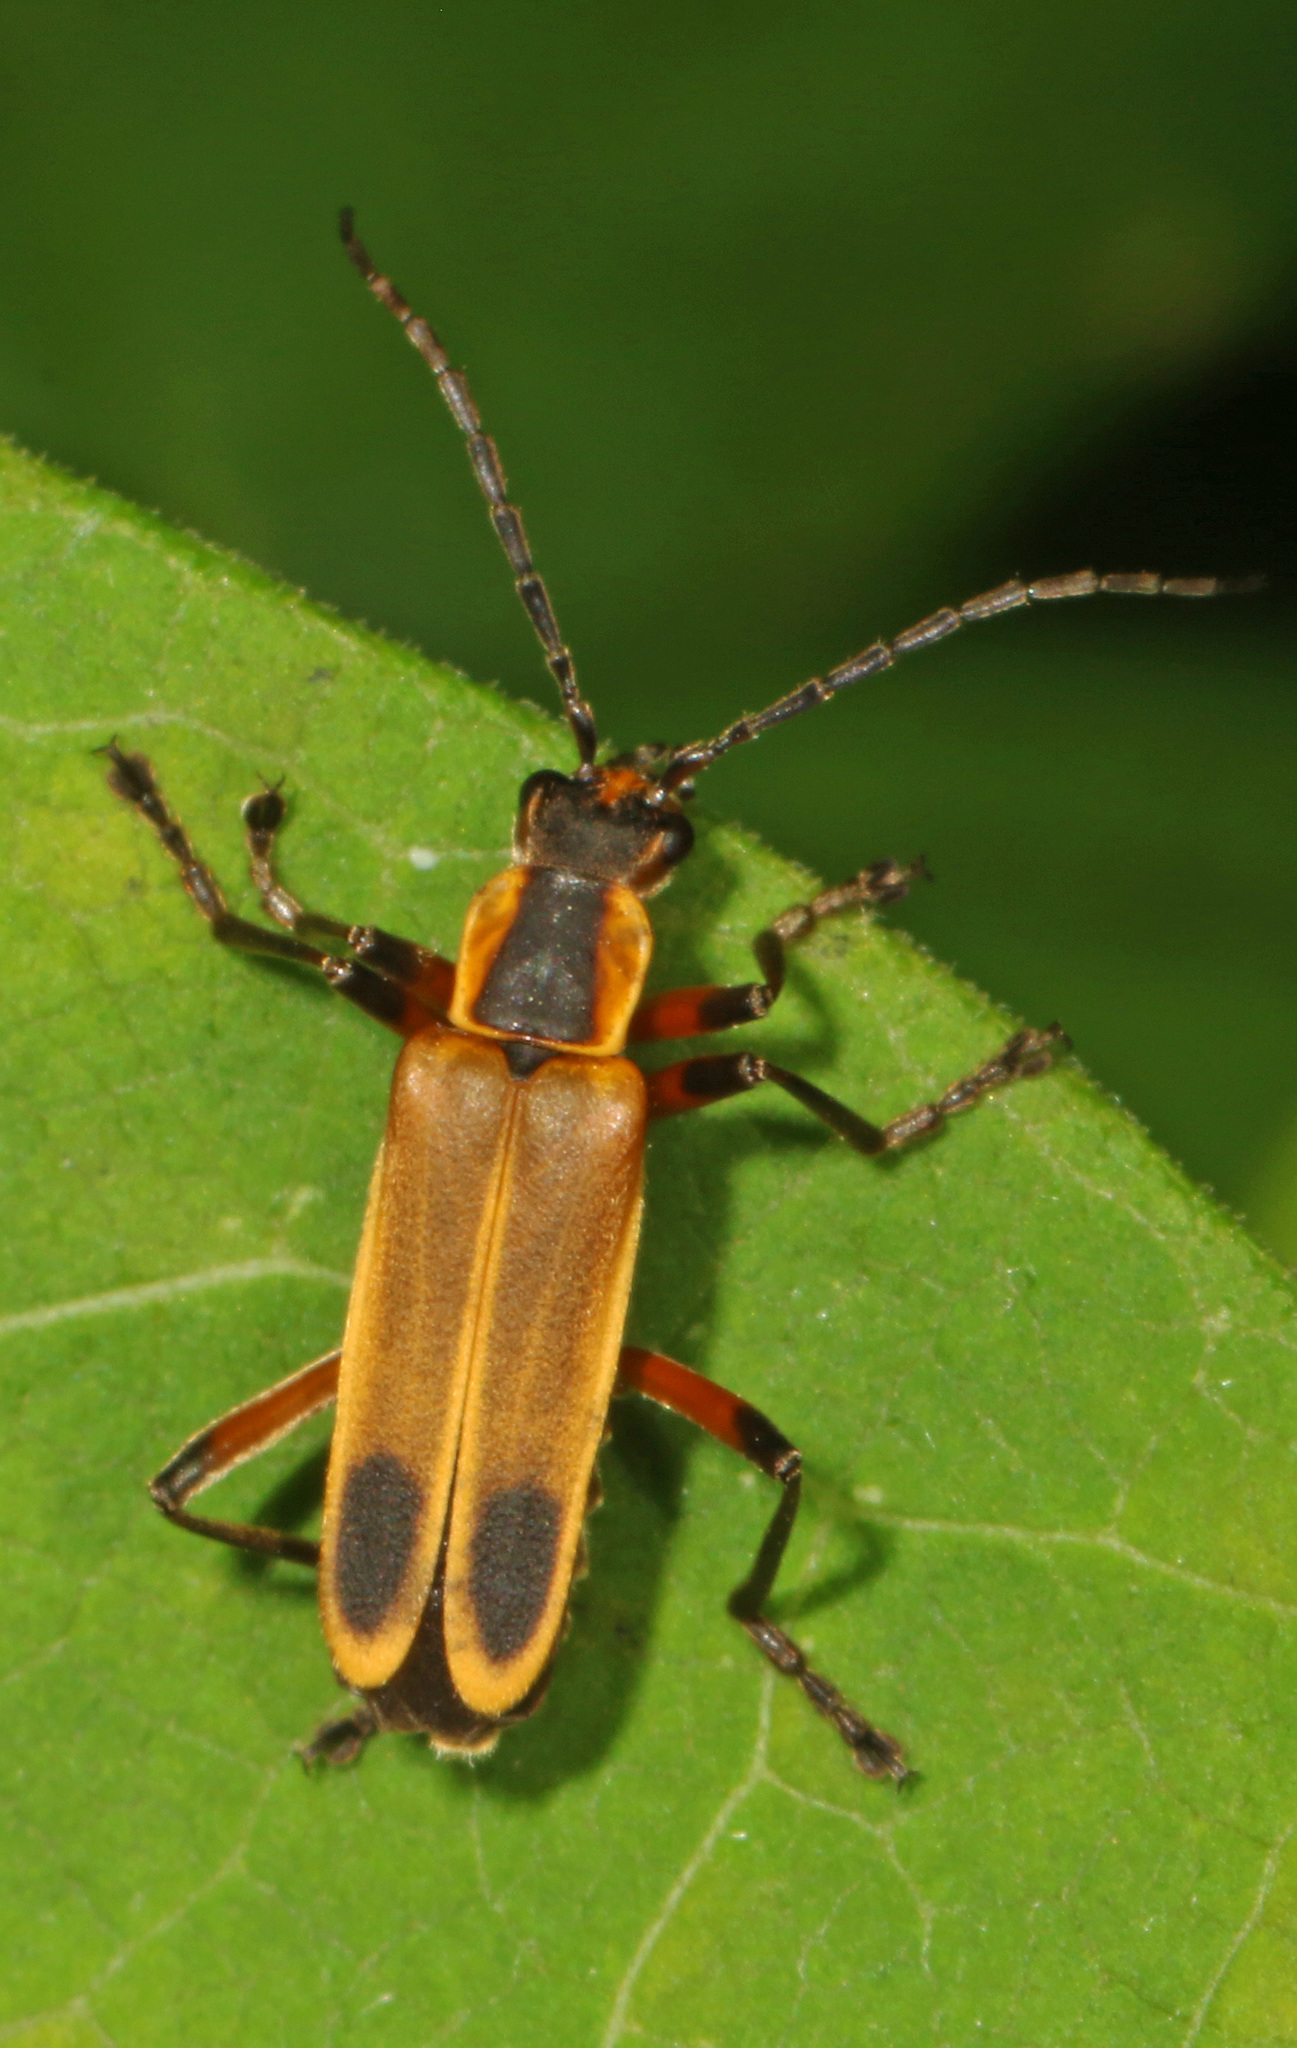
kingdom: Animalia
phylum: Arthropoda
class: Insecta
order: Coleoptera
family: Cantharidae
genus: Chauliognathus
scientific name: Chauliognathus marginatus
